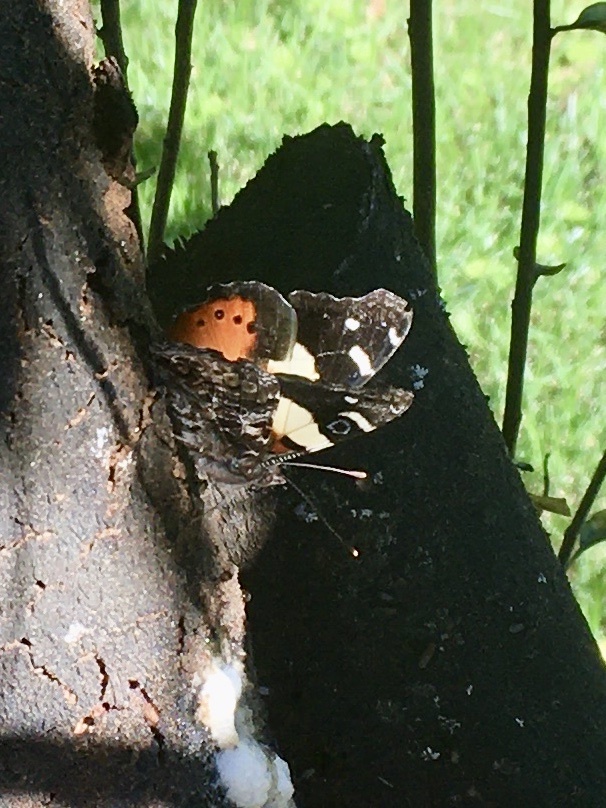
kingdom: Animalia
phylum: Arthropoda
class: Insecta
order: Lepidoptera
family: Nymphalidae
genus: Vanessa
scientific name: Vanessa itea
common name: Yellow admiral
